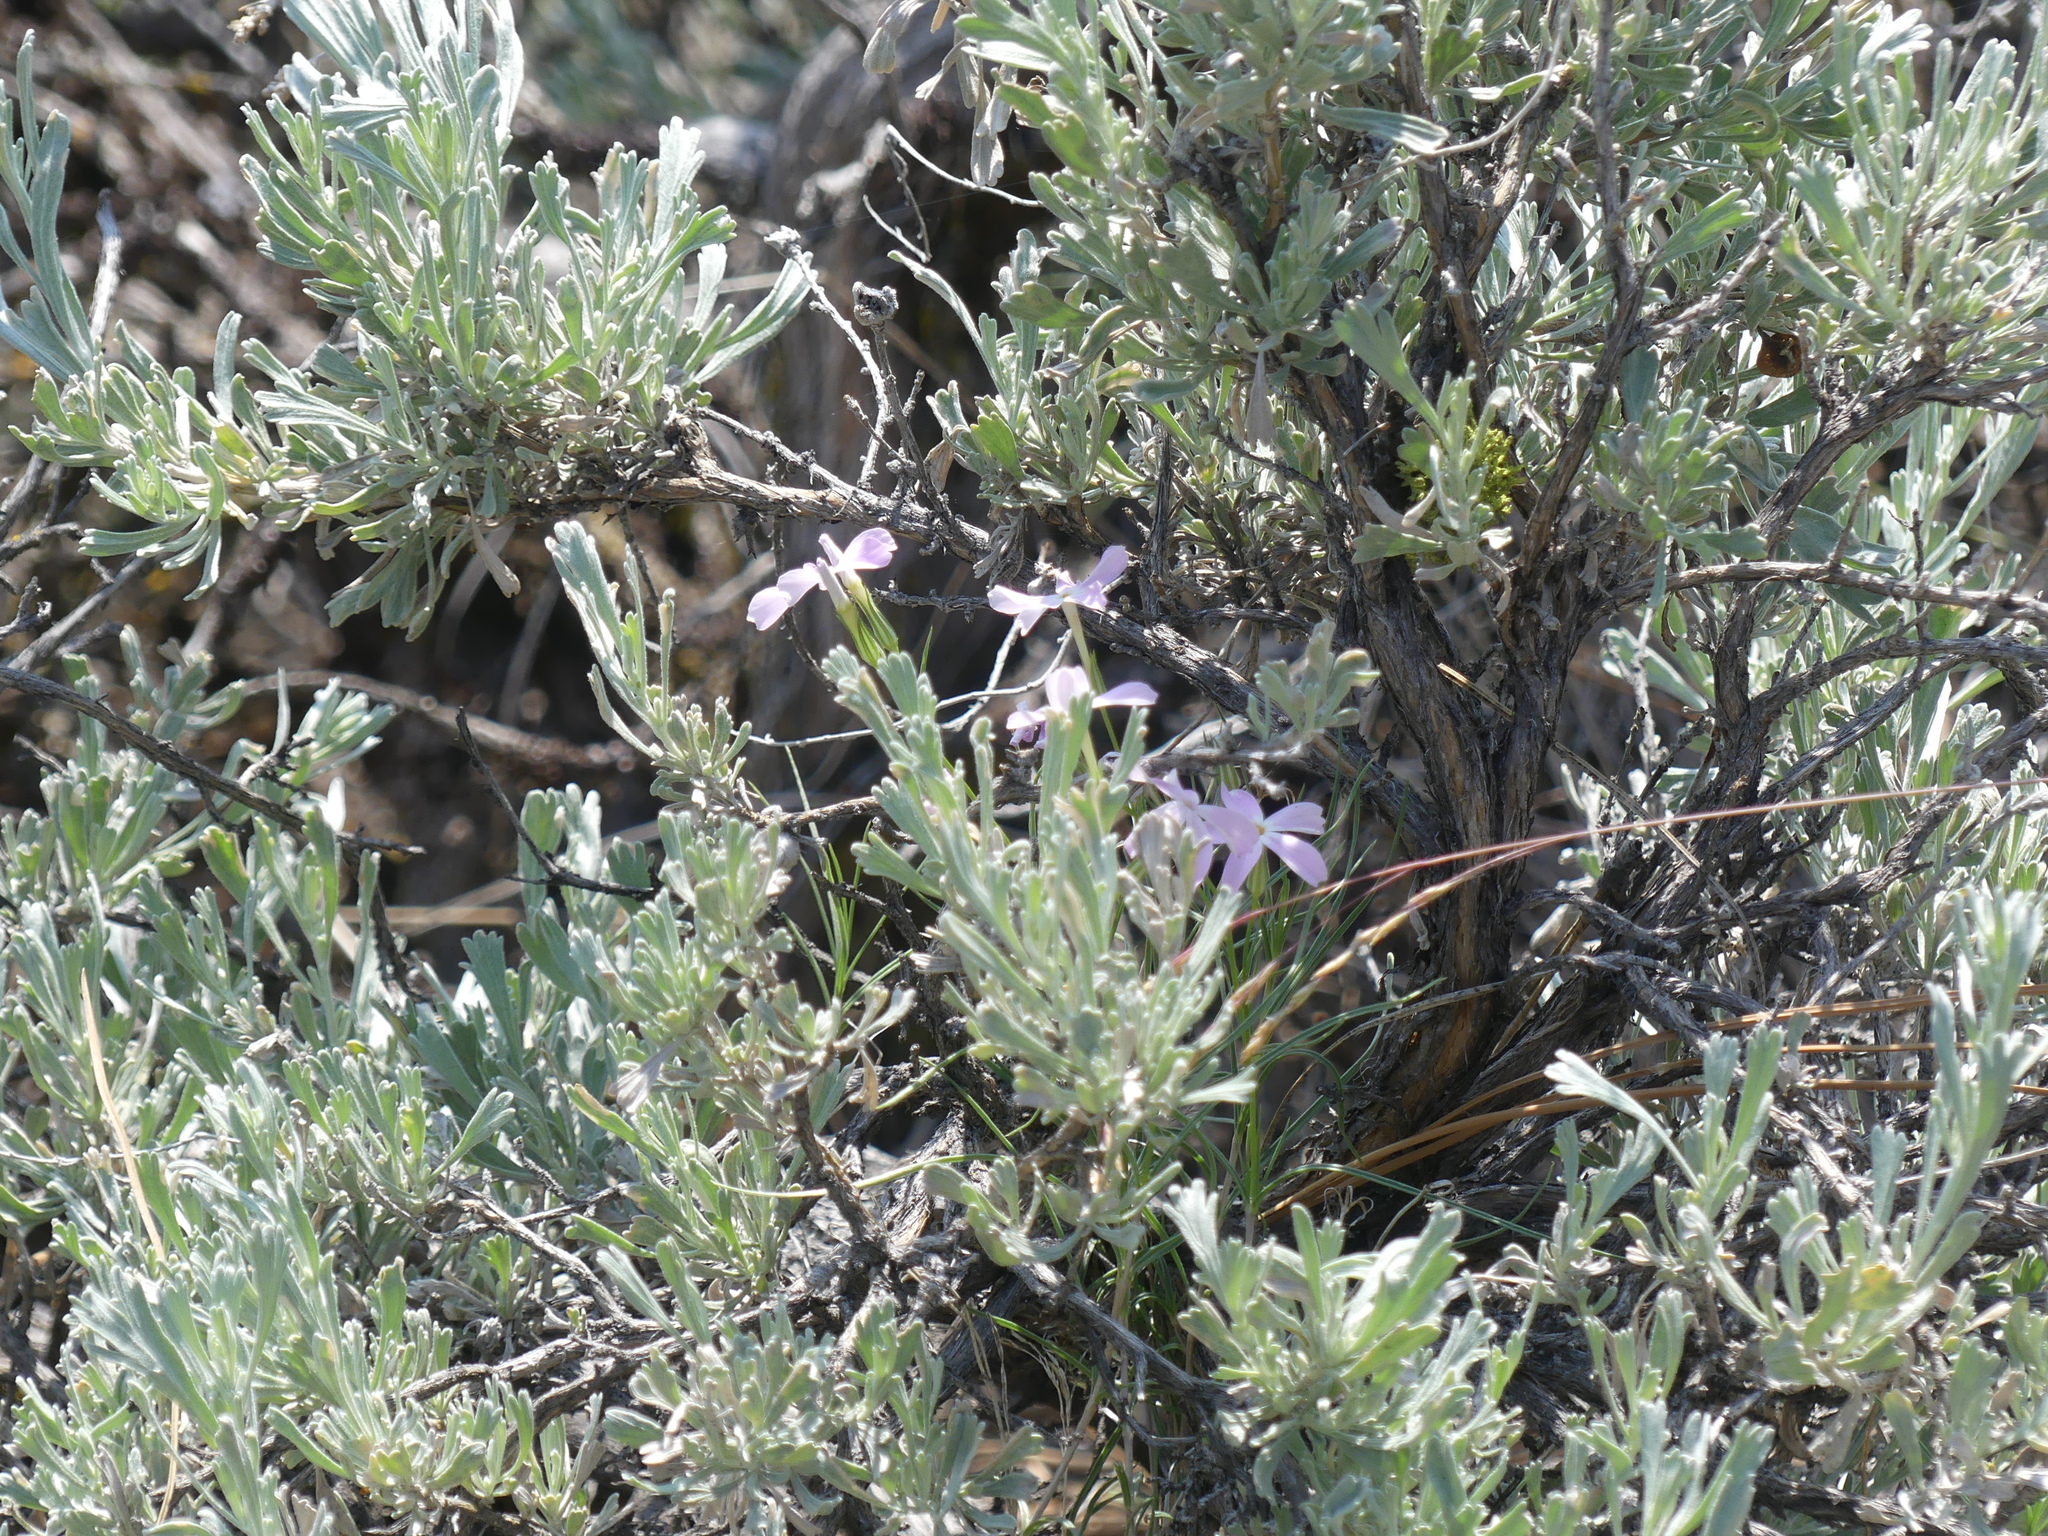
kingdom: Plantae
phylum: Tracheophyta
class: Magnoliopsida
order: Ericales
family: Polemoniaceae
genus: Phlox
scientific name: Phlox longifolia
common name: Longleaf phlox
